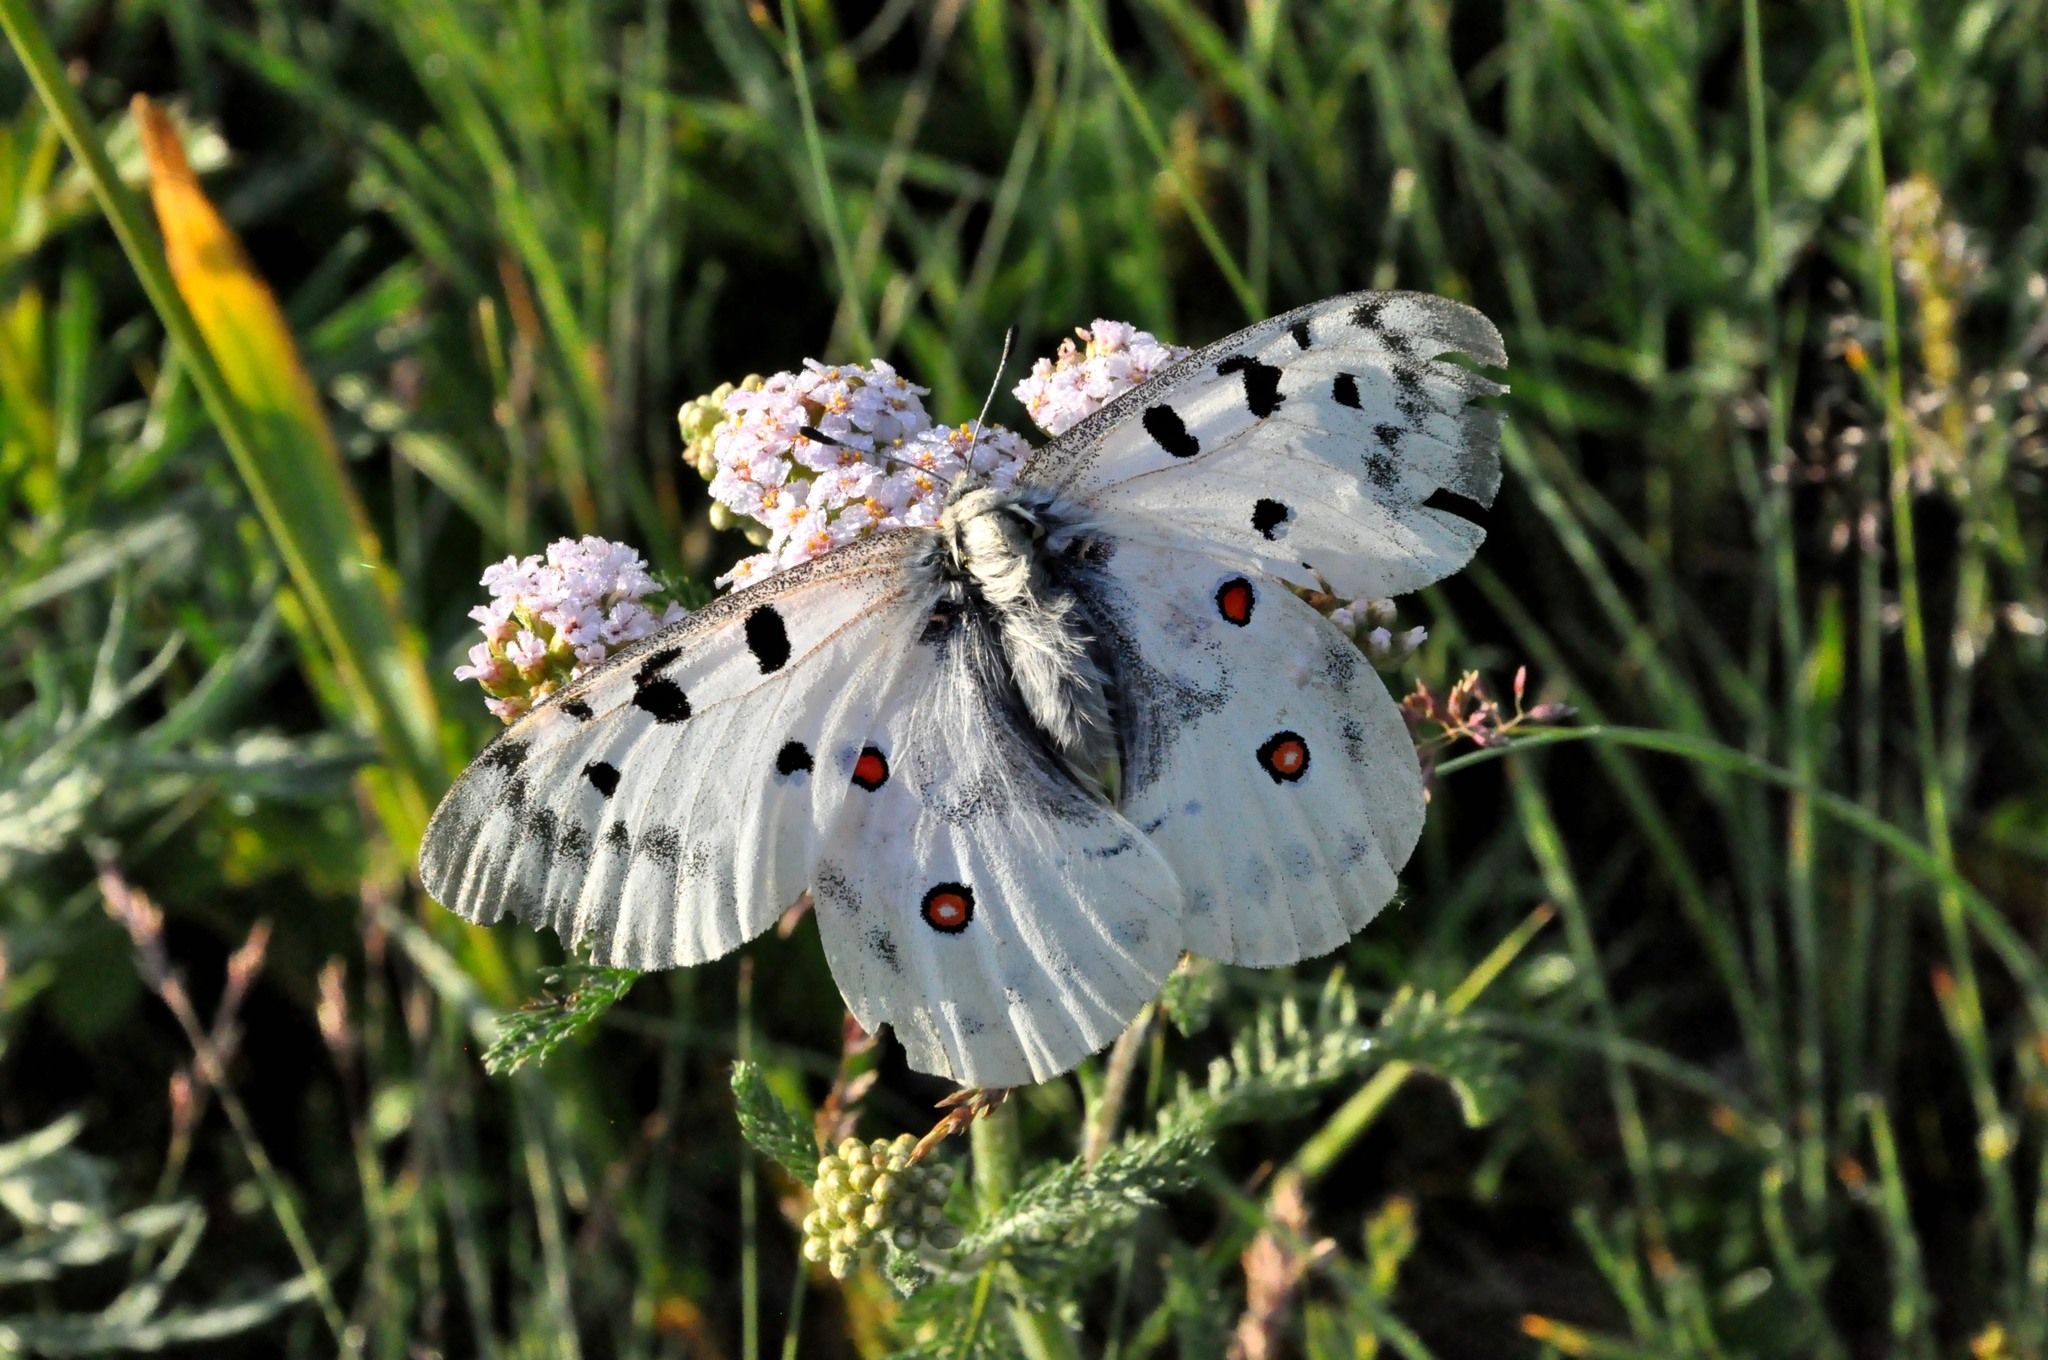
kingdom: Animalia
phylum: Arthropoda
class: Insecta
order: Lepidoptera
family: Papilionidae
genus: Parnassius
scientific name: Parnassius apollo
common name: Apollo
